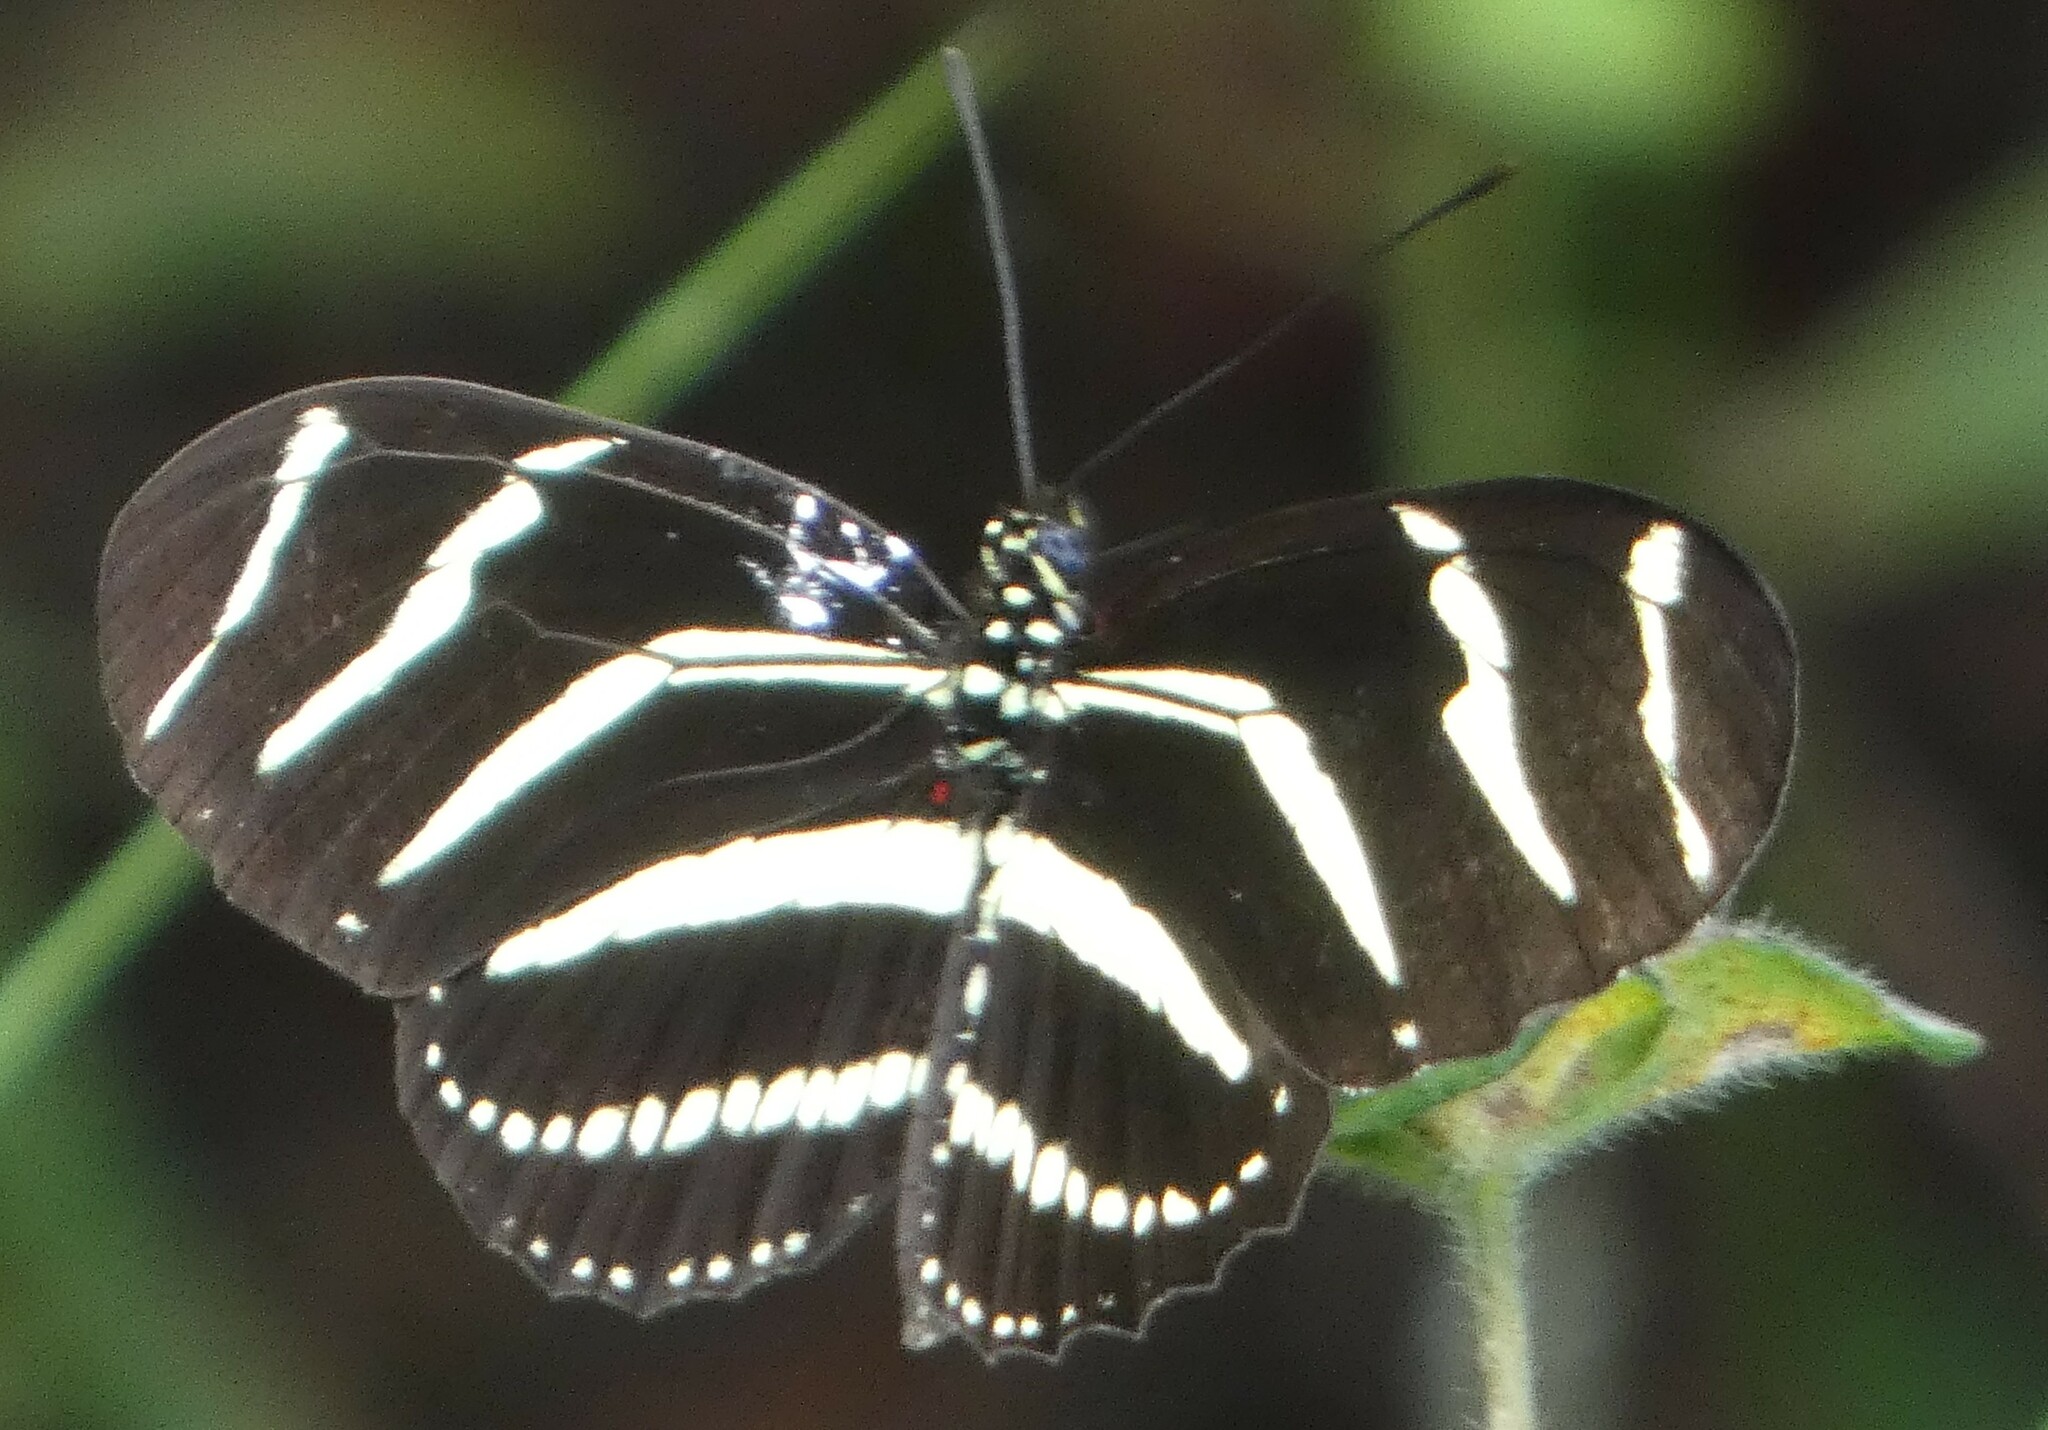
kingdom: Animalia
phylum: Arthropoda
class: Insecta
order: Lepidoptera
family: Nymphalidae
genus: Heliconius
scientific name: Heliconius charithonia
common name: Zebra long wing
